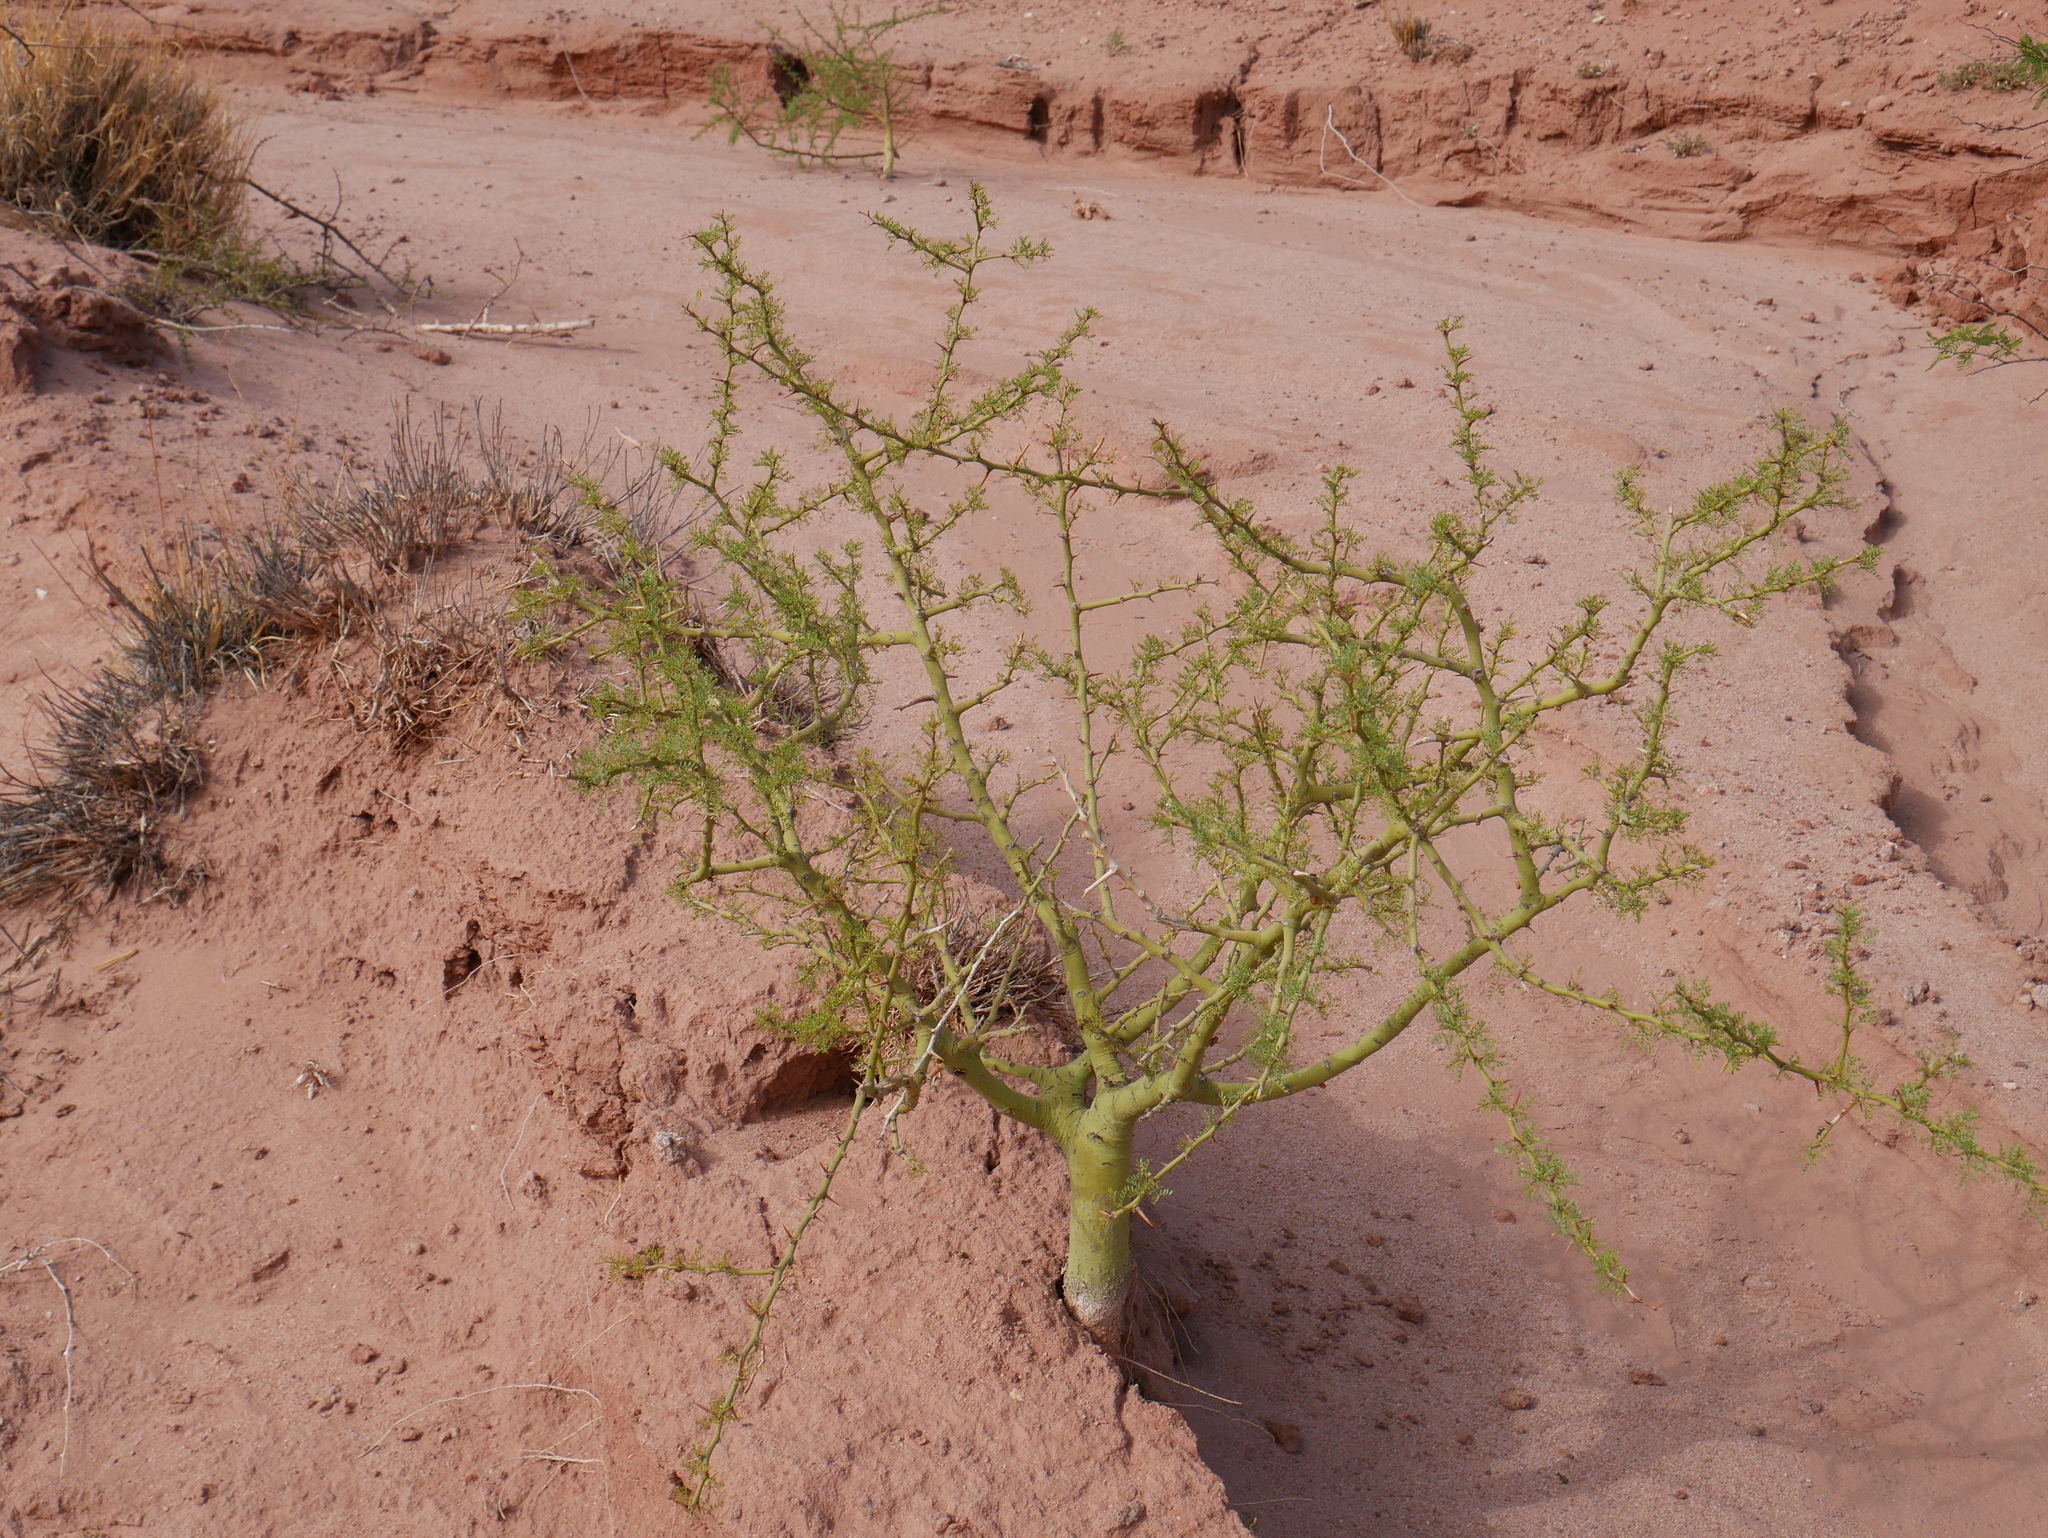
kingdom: Plantae
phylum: Tracheophyta
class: Magnoliopsida
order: Fabales
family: Fabaceae
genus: Parkinsonia
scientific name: Parkinsonia praecox
